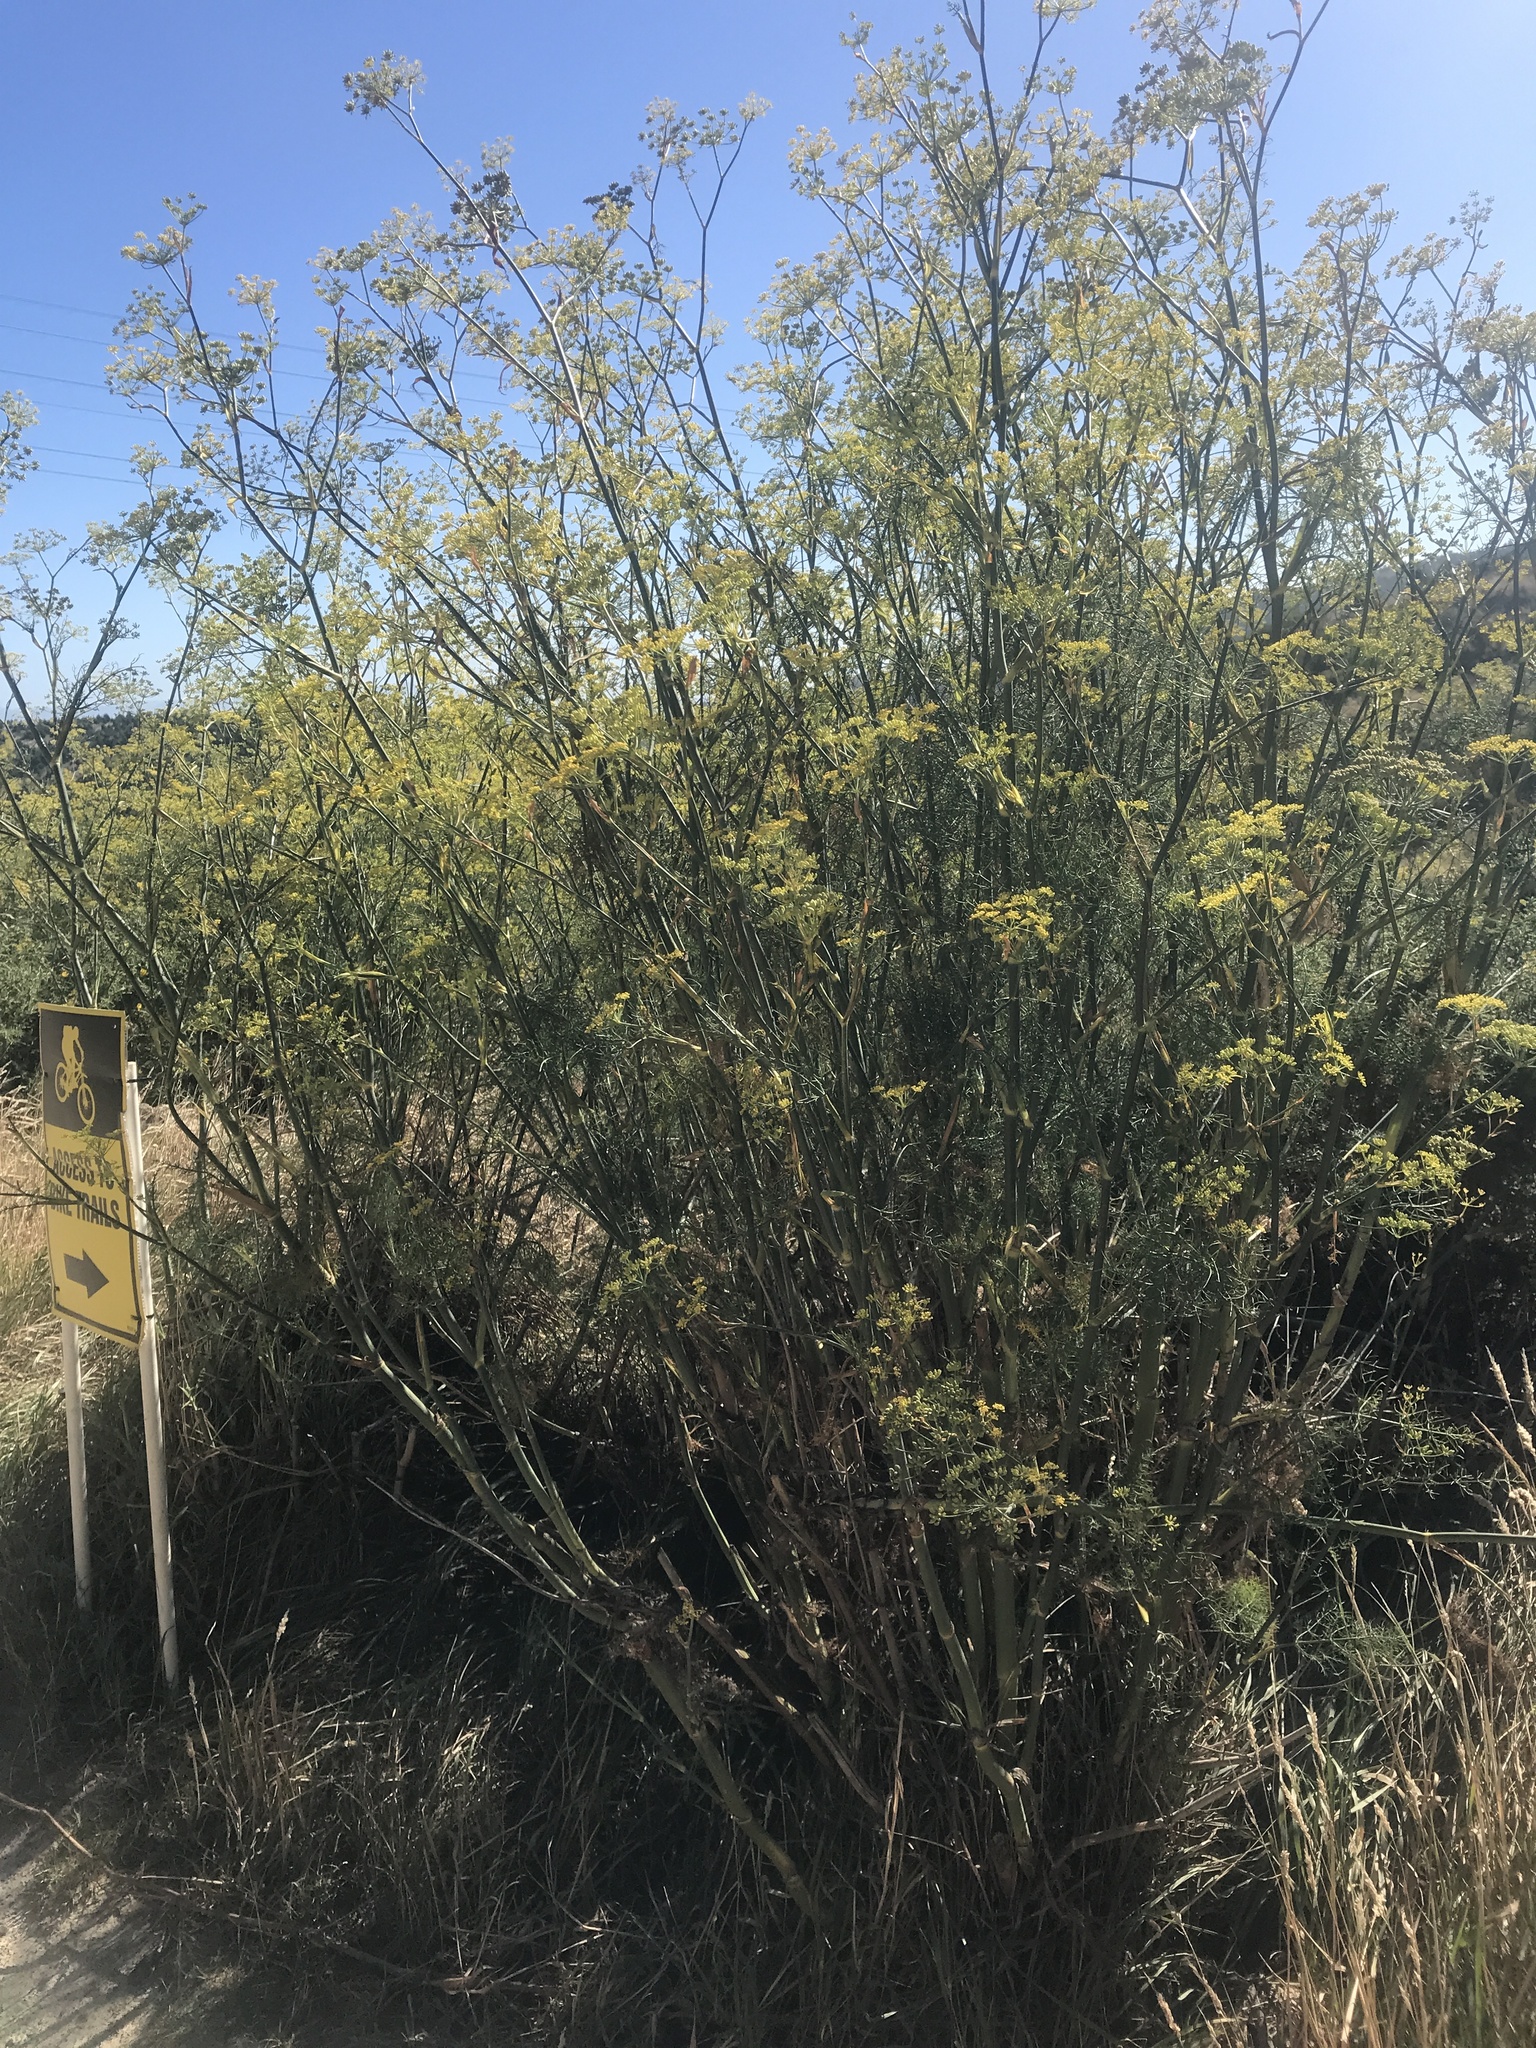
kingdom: Plantae
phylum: Tracheophyta
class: Magnoliopsida
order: Apiales
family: Apiaceae
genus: Foeniculum
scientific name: Foeniculum vulgare
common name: Fennel
